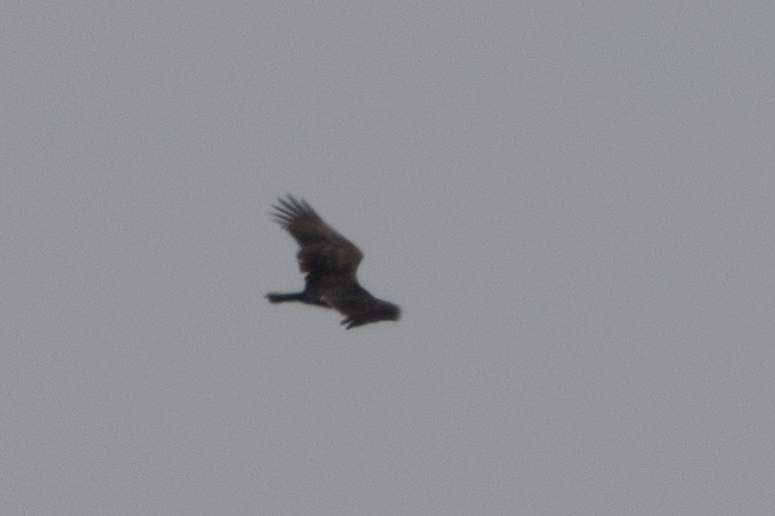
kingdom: Animalia
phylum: Chordata
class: Aves
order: Accipitriformes
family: Cathartidae
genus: Cathartes
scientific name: Cathartes aura
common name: Turkey vulture
